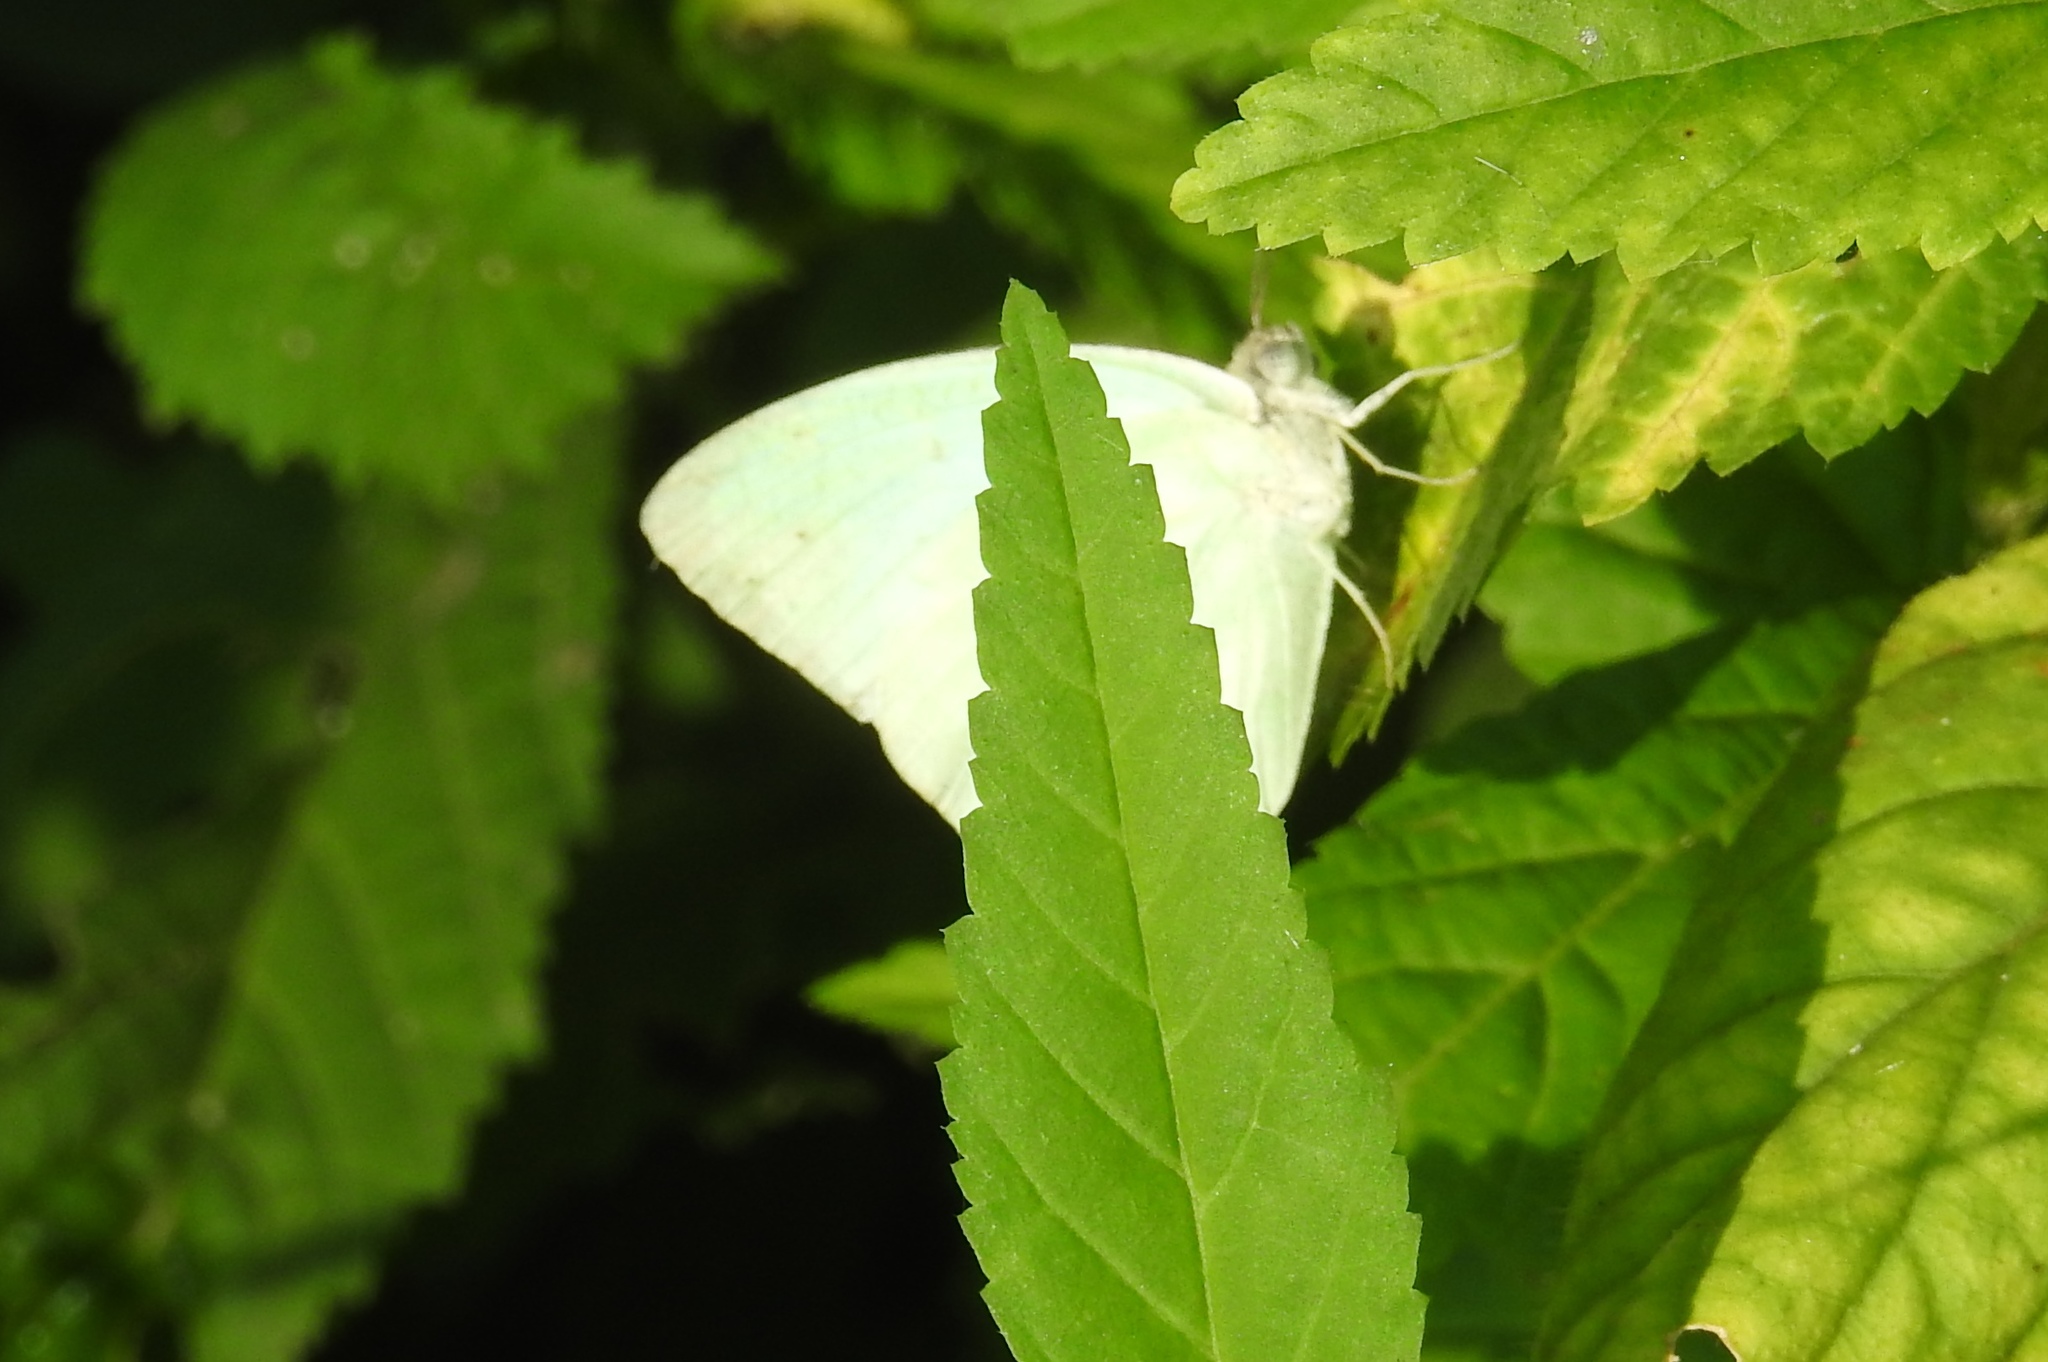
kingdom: Animalia
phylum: Arthropoda
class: Insecta
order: Lepidoptera
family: Pieridae
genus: Catopsilia
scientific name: Catopsilia pyranthe
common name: Mottled emigrant
